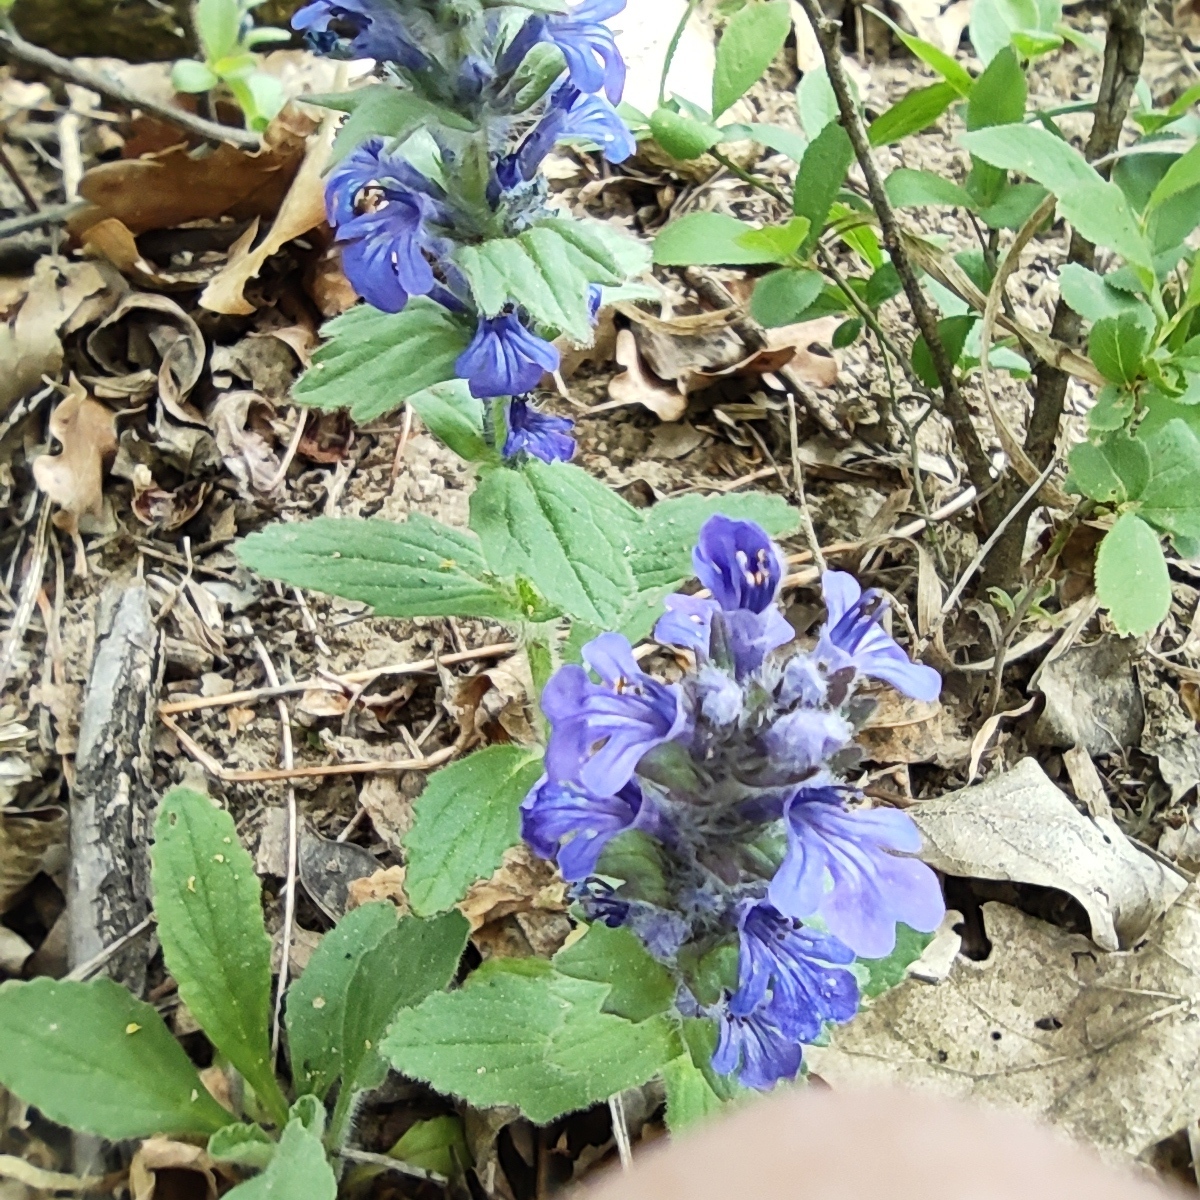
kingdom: Plantae
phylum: Tracheophyta
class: Magnoliopsida
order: Lamiales
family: Lamiaceae
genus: Ajuga
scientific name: Ajuga genevensis
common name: Blue bugle
